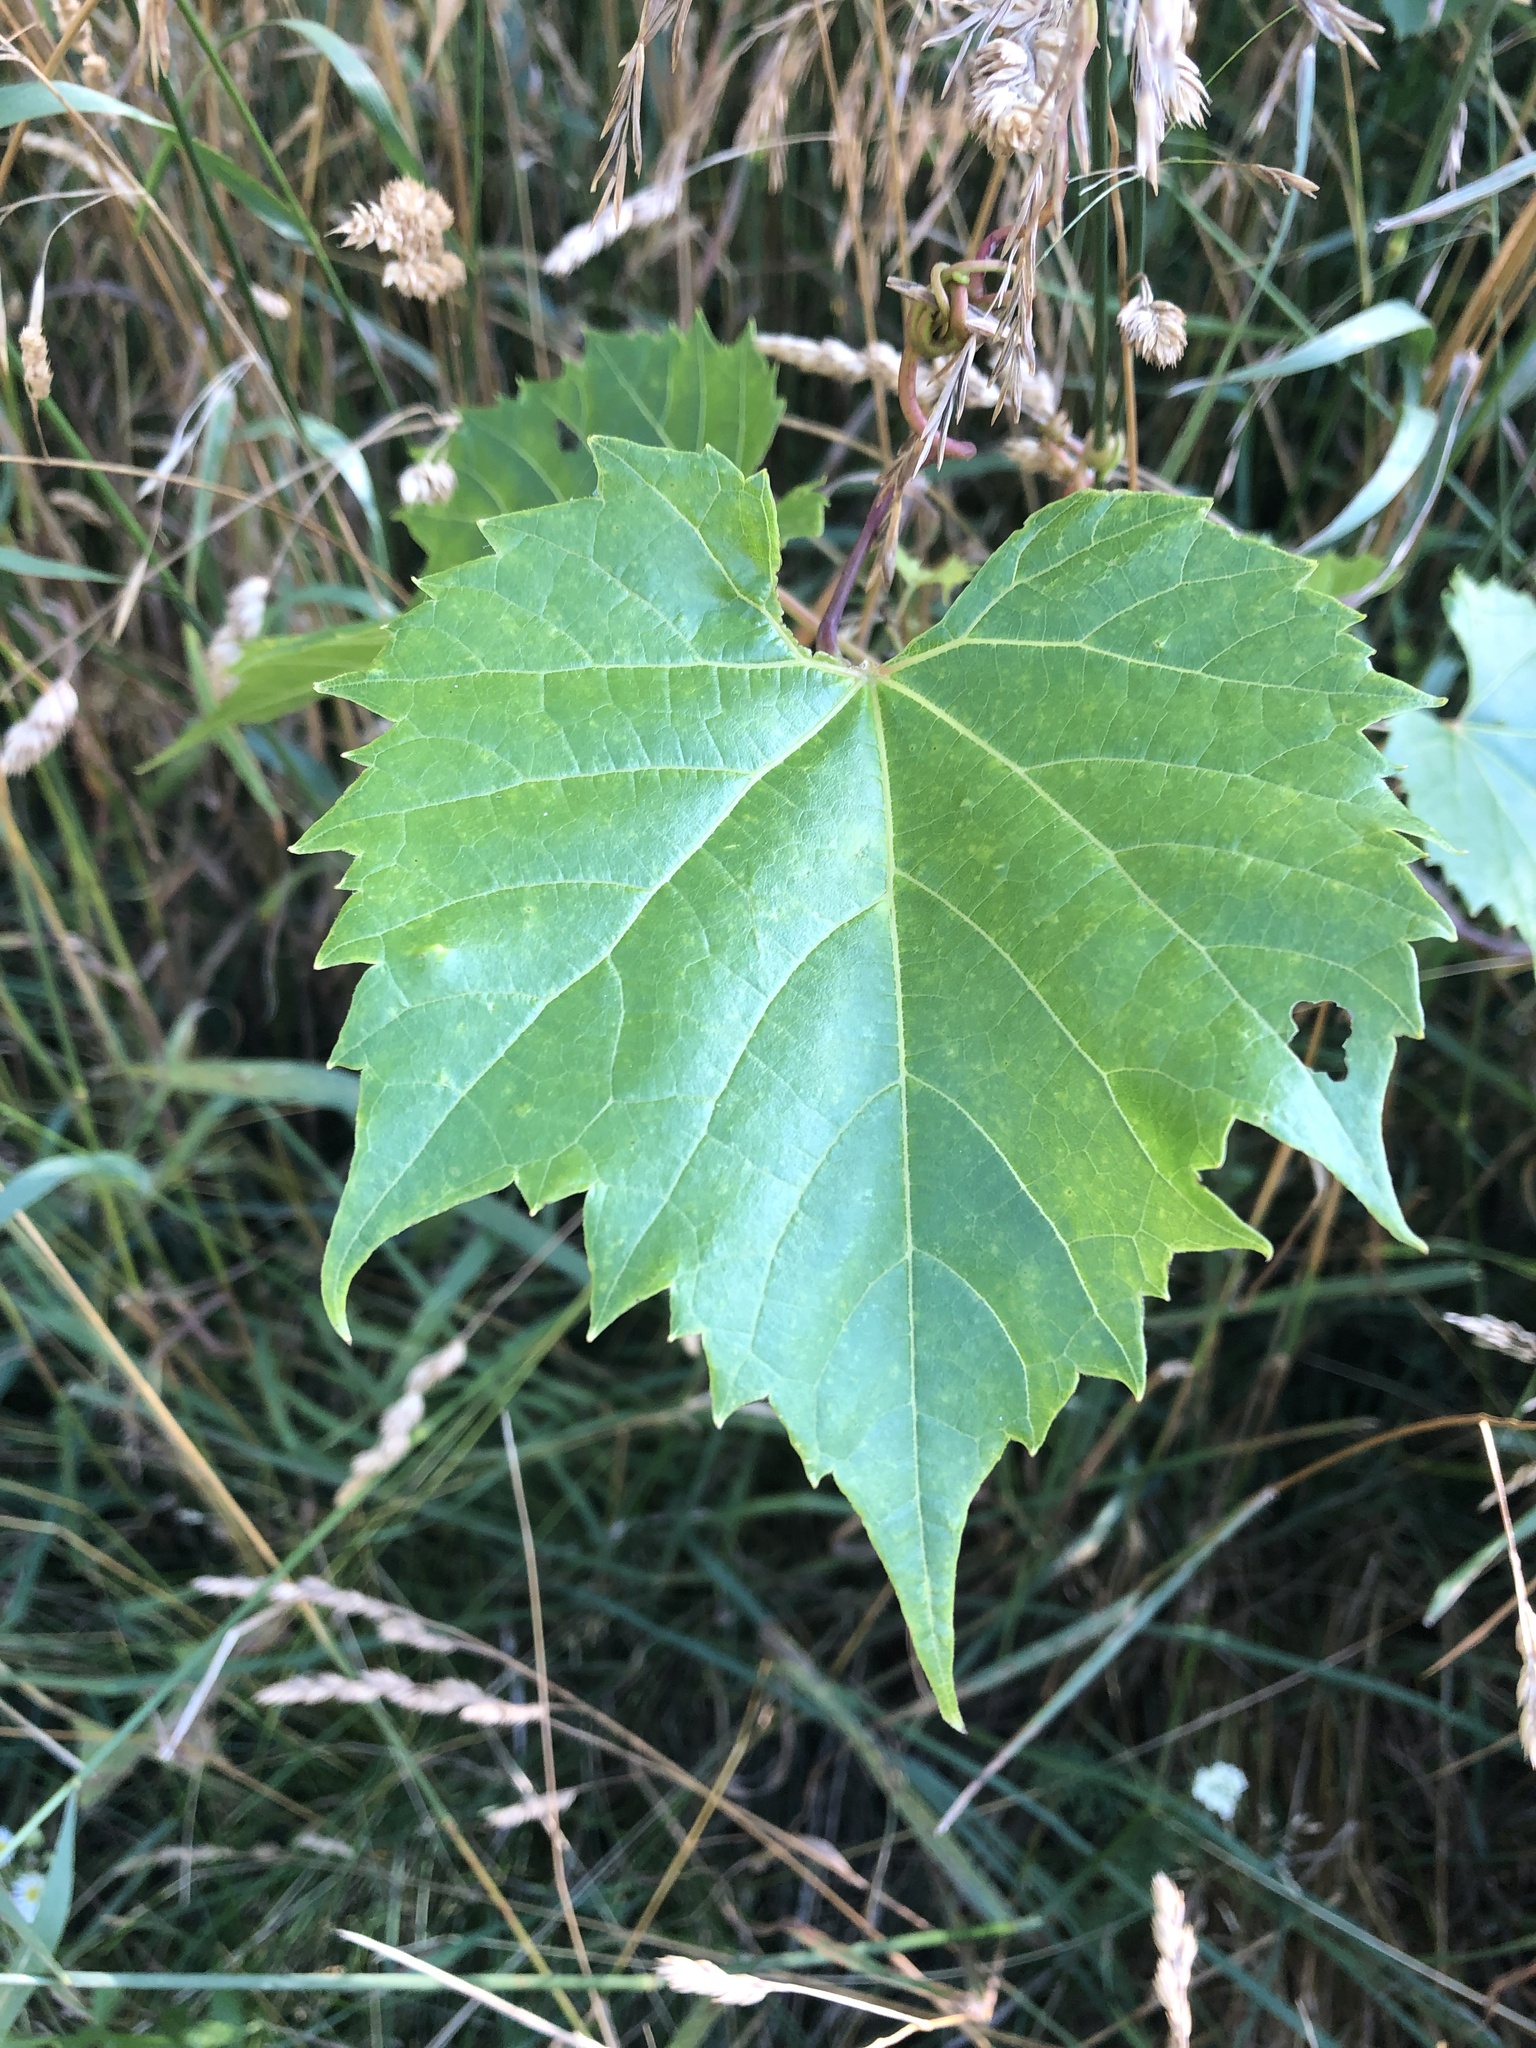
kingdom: Plantae
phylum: Tracheophyta
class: Magnoliopsida
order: Vitales
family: Vitaceae
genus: Vitis
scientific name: Vitis riparia
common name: Frost grape
